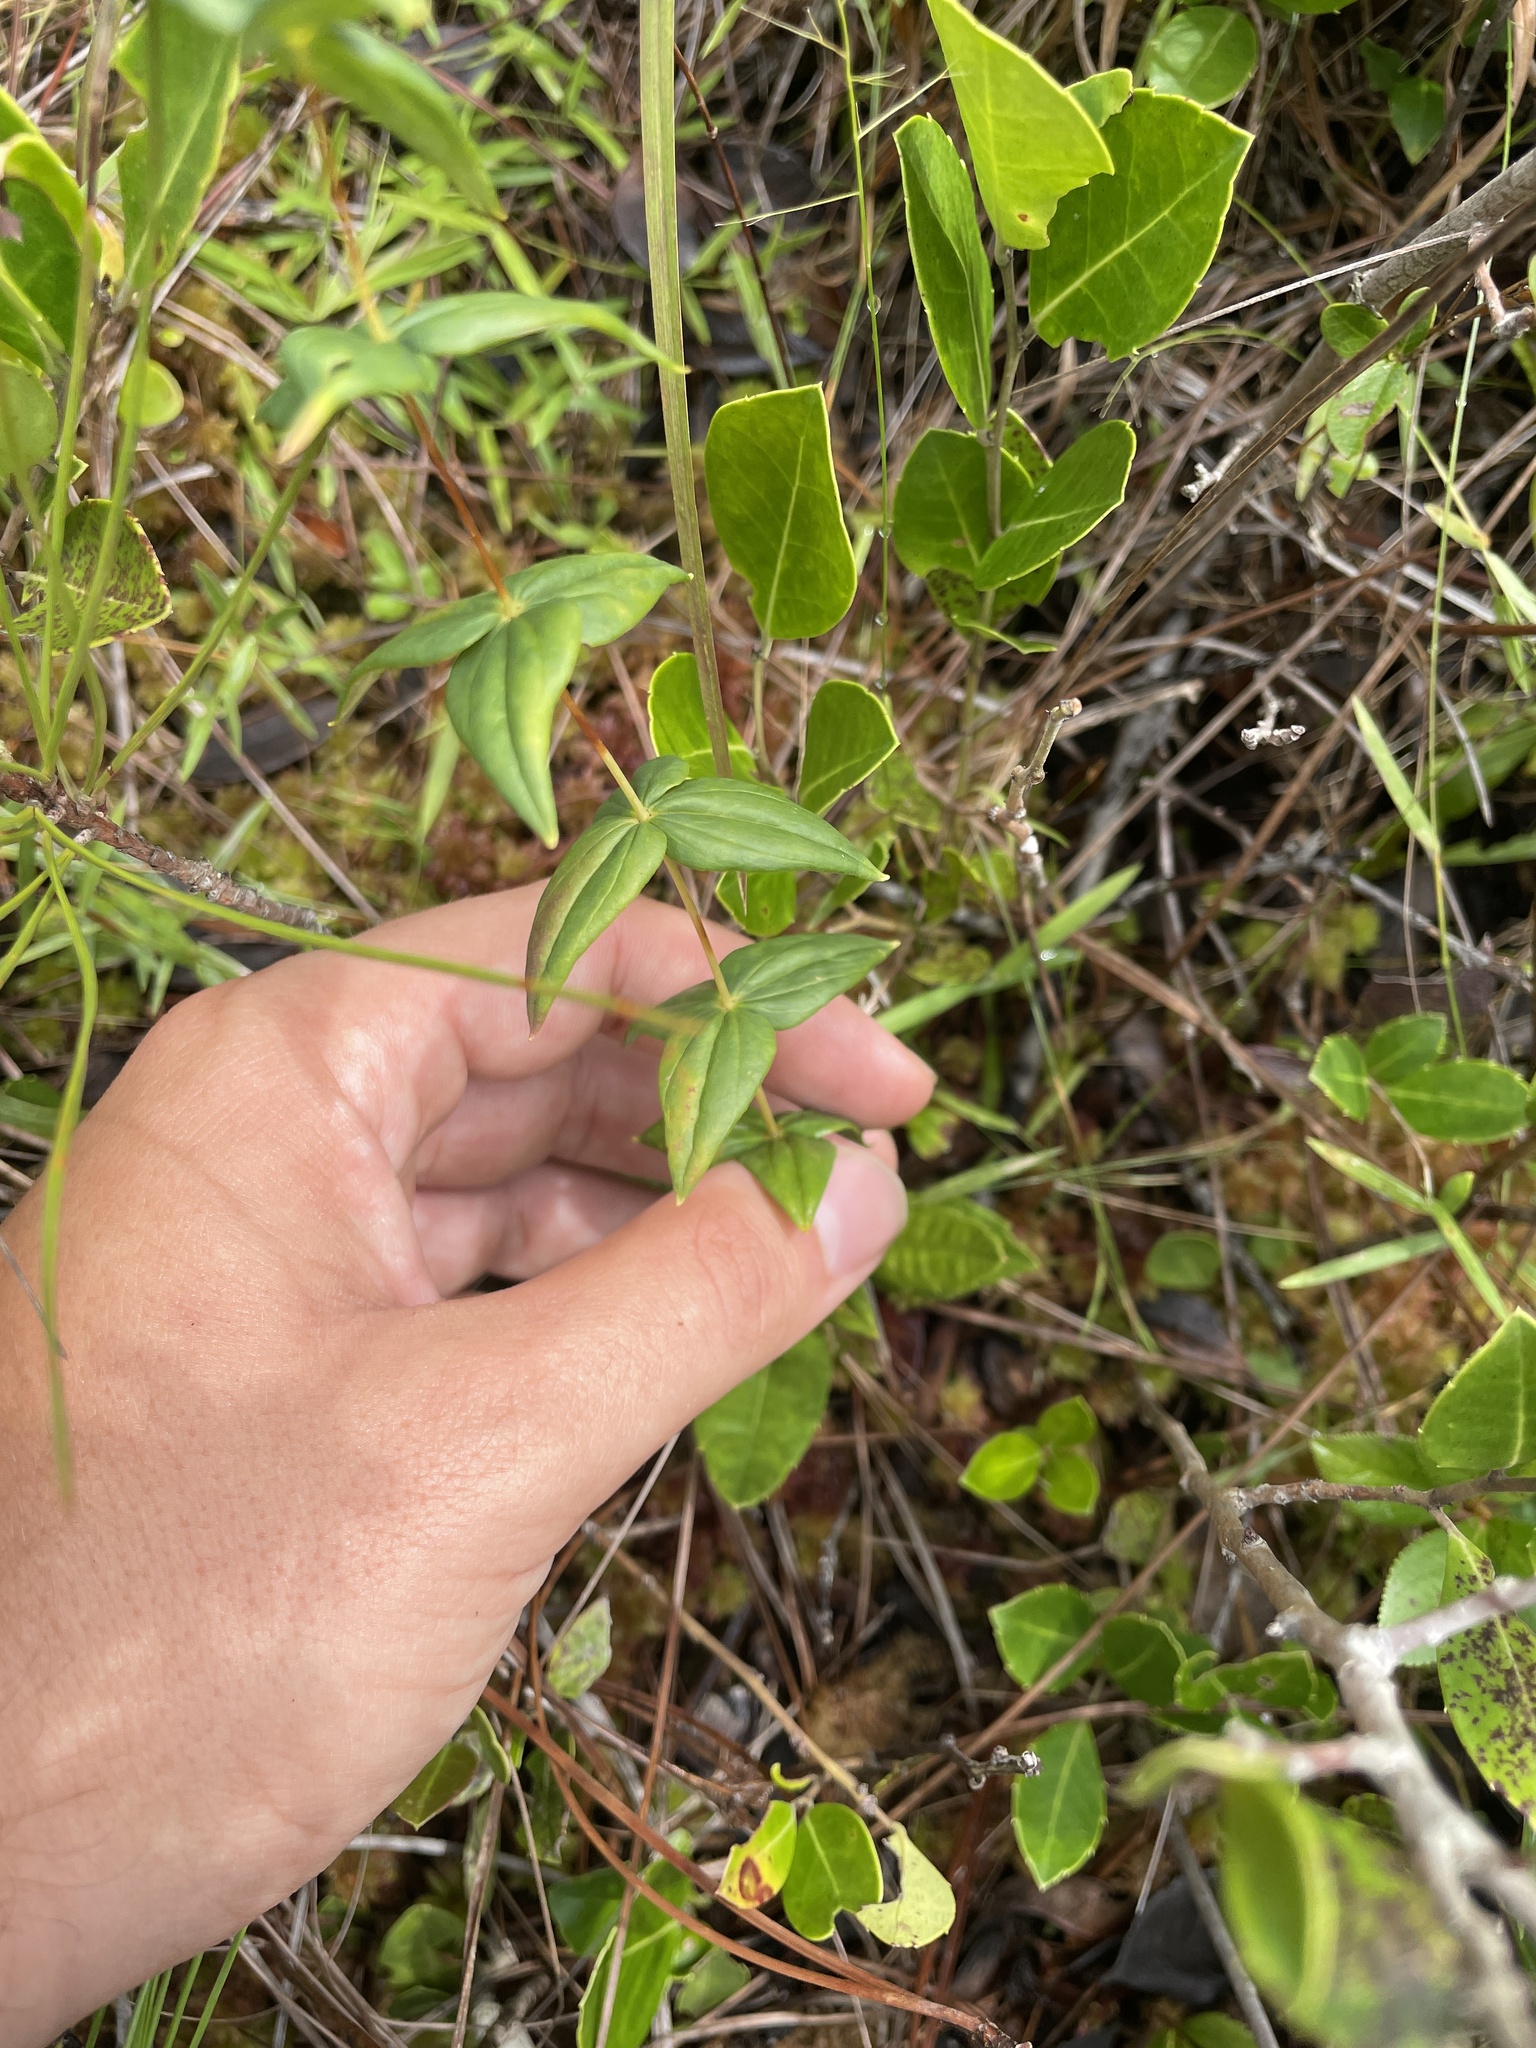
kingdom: Plantae
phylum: Tracheophyta
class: Magnoliopsida
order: Ericales
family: Primulaceae
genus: Lysimachia
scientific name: Lysimachia asperulifolia
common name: Rough-leaf loosestrife
